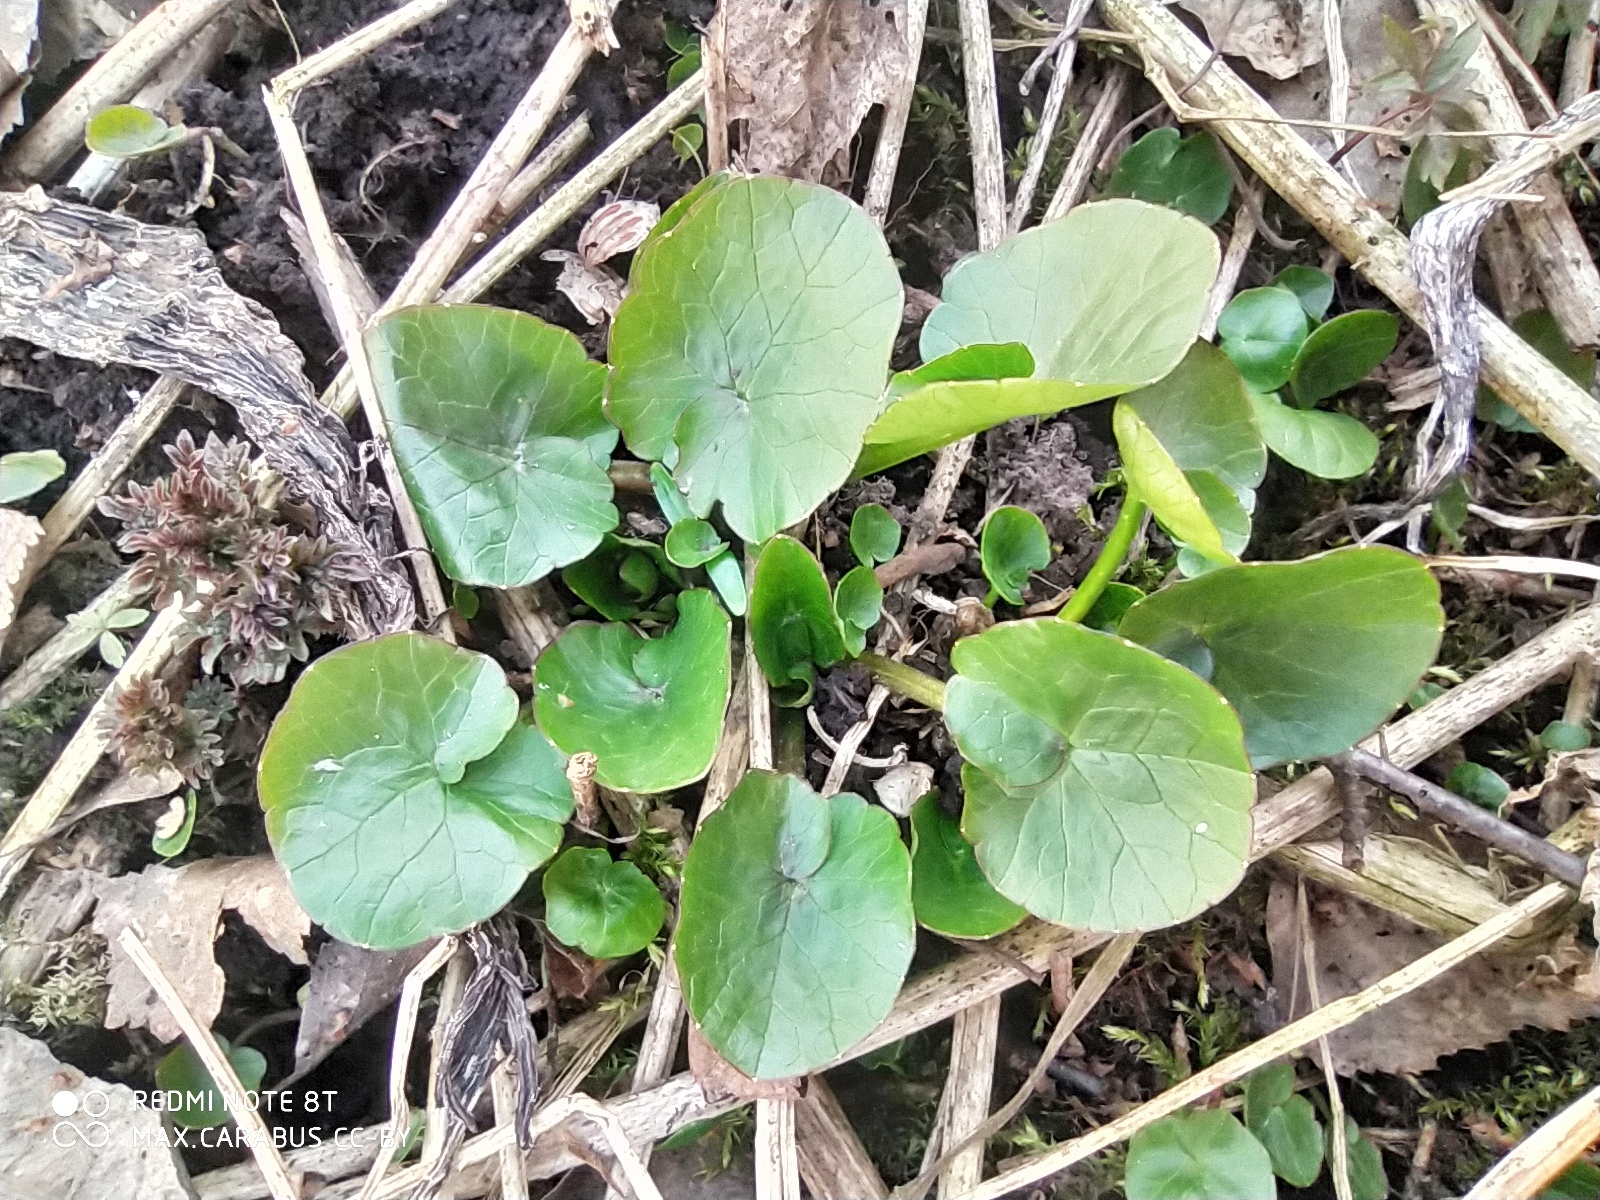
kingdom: Plantae
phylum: Tracheophyta
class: Magnoliopsida
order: Ranunculales
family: Ranunculaceae
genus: Ficaria
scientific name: Ficaria verna
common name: Lesser celandine
